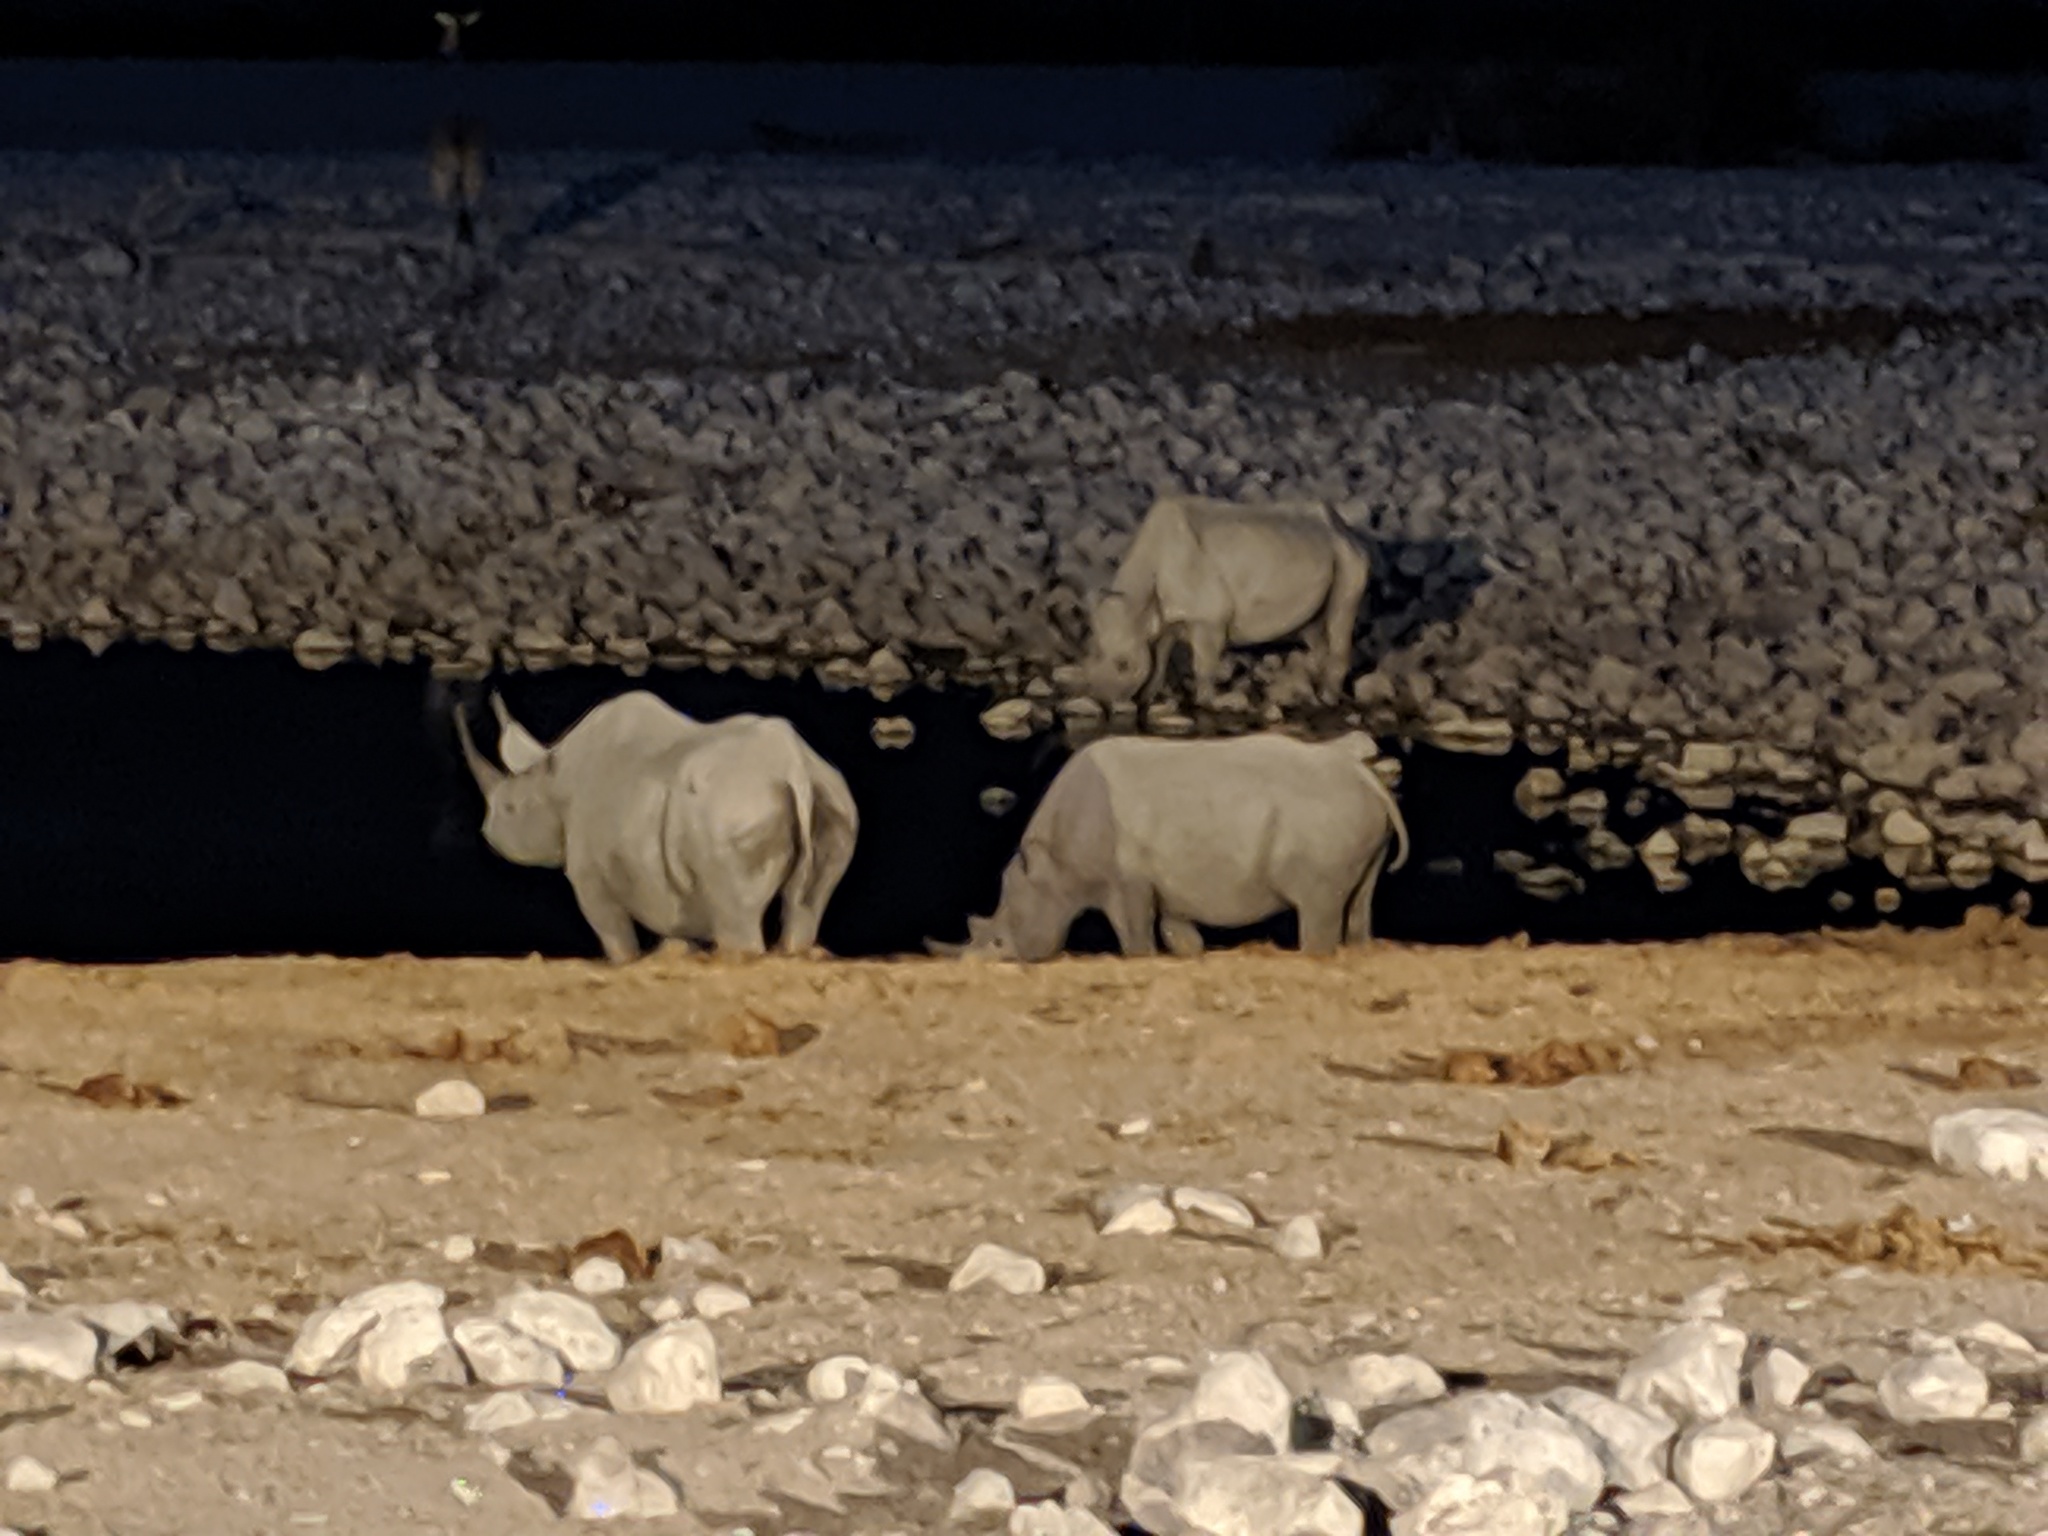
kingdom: Animalia
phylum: Chordata
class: Mammalia
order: Perissodactyla
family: Rhinocerotidae
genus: Diceros
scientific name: Diceros bicornis
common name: Black rhinoceros
